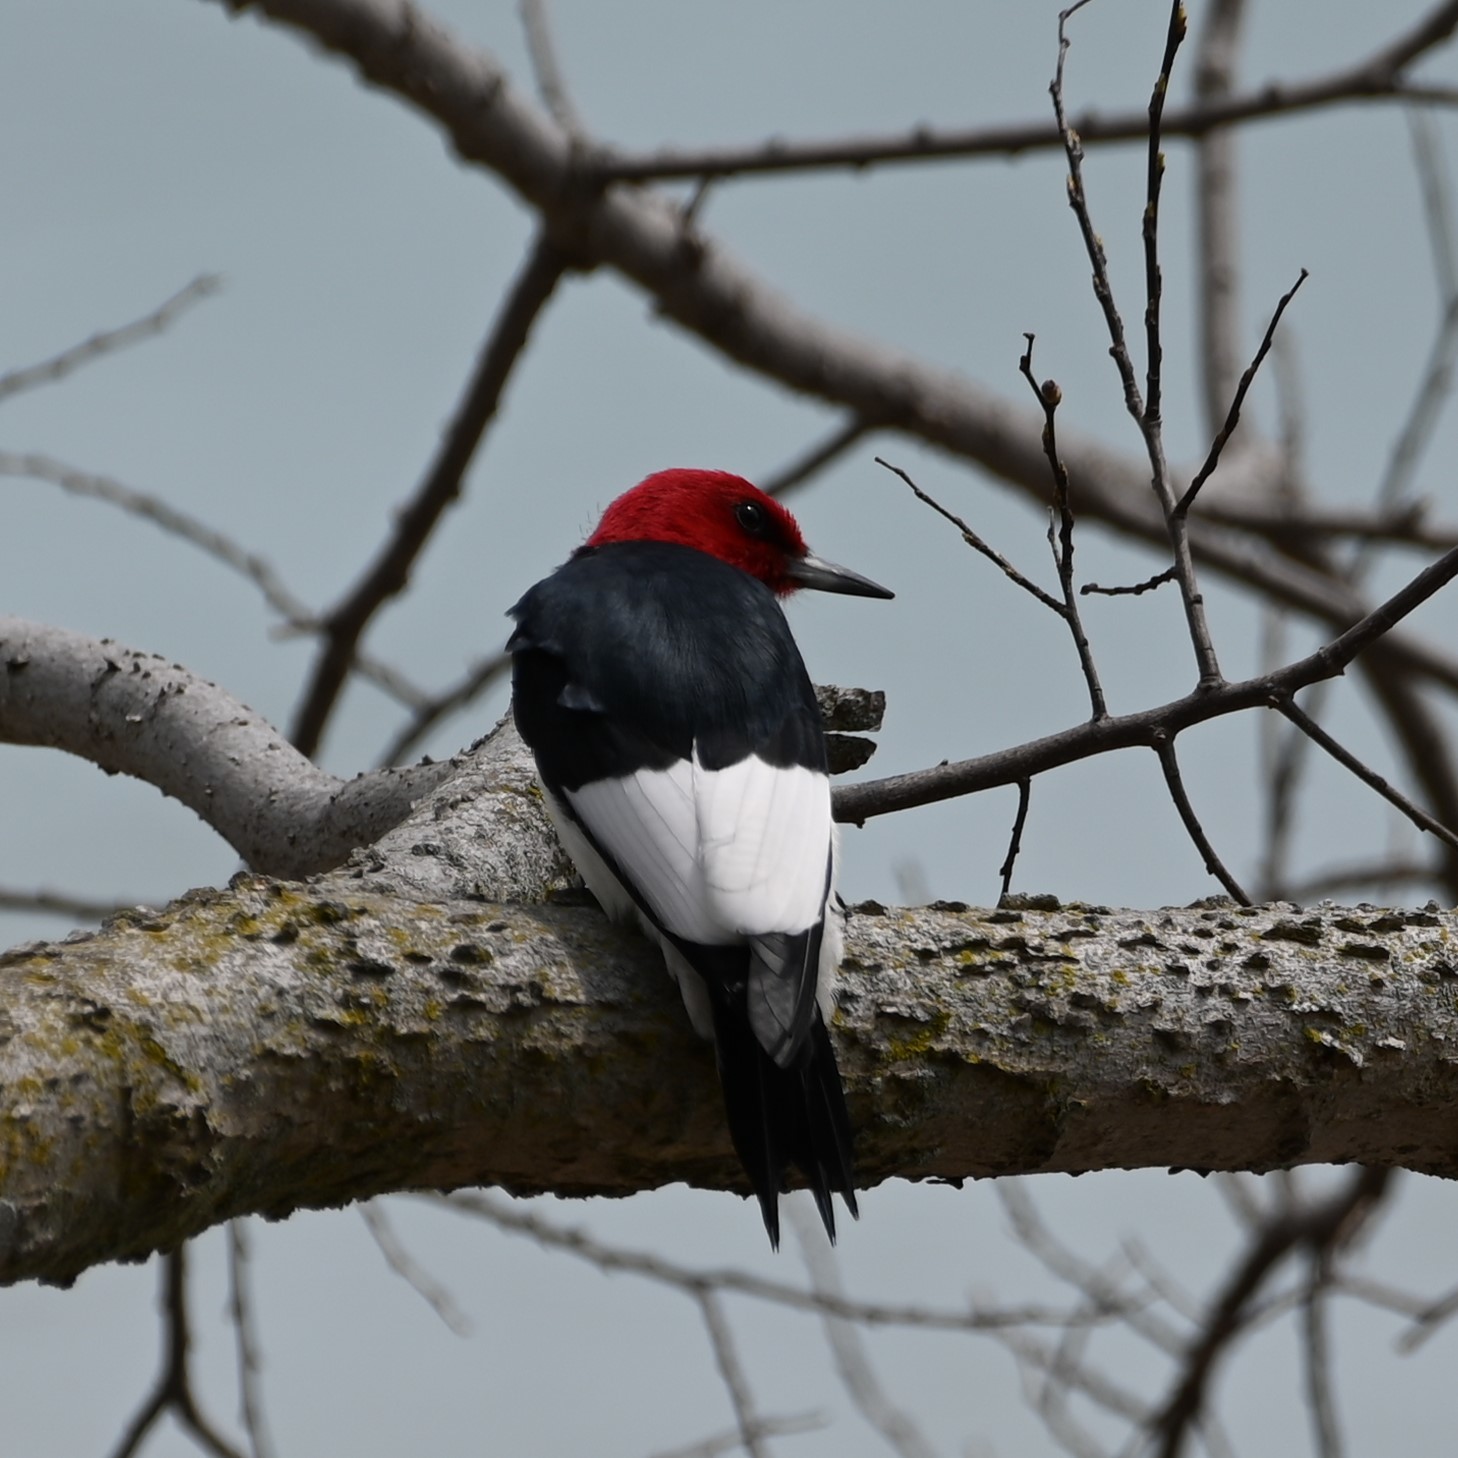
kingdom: Animalia
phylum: Chordata
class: Aves
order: Piciformes
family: Picidae
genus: Melanerpes
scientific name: Melanerpes erythrocephalus
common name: Red-headed woodpecker
